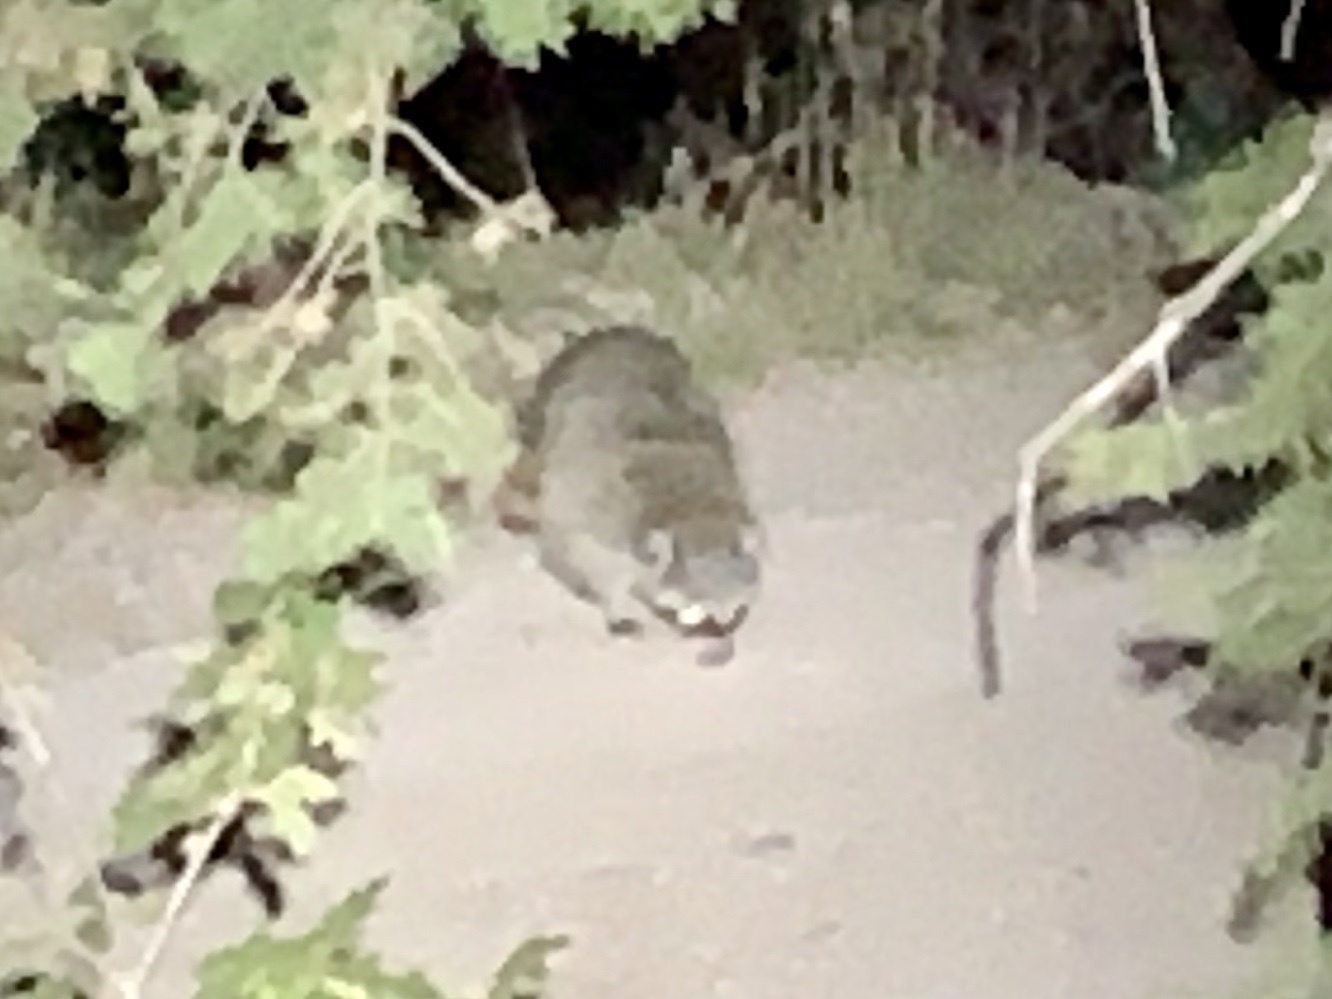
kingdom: Animalia
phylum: Chordata
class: Mammalia
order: Carnivora
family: Procyonidae
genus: Procyon
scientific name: Procyon lotor
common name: Raccoon
